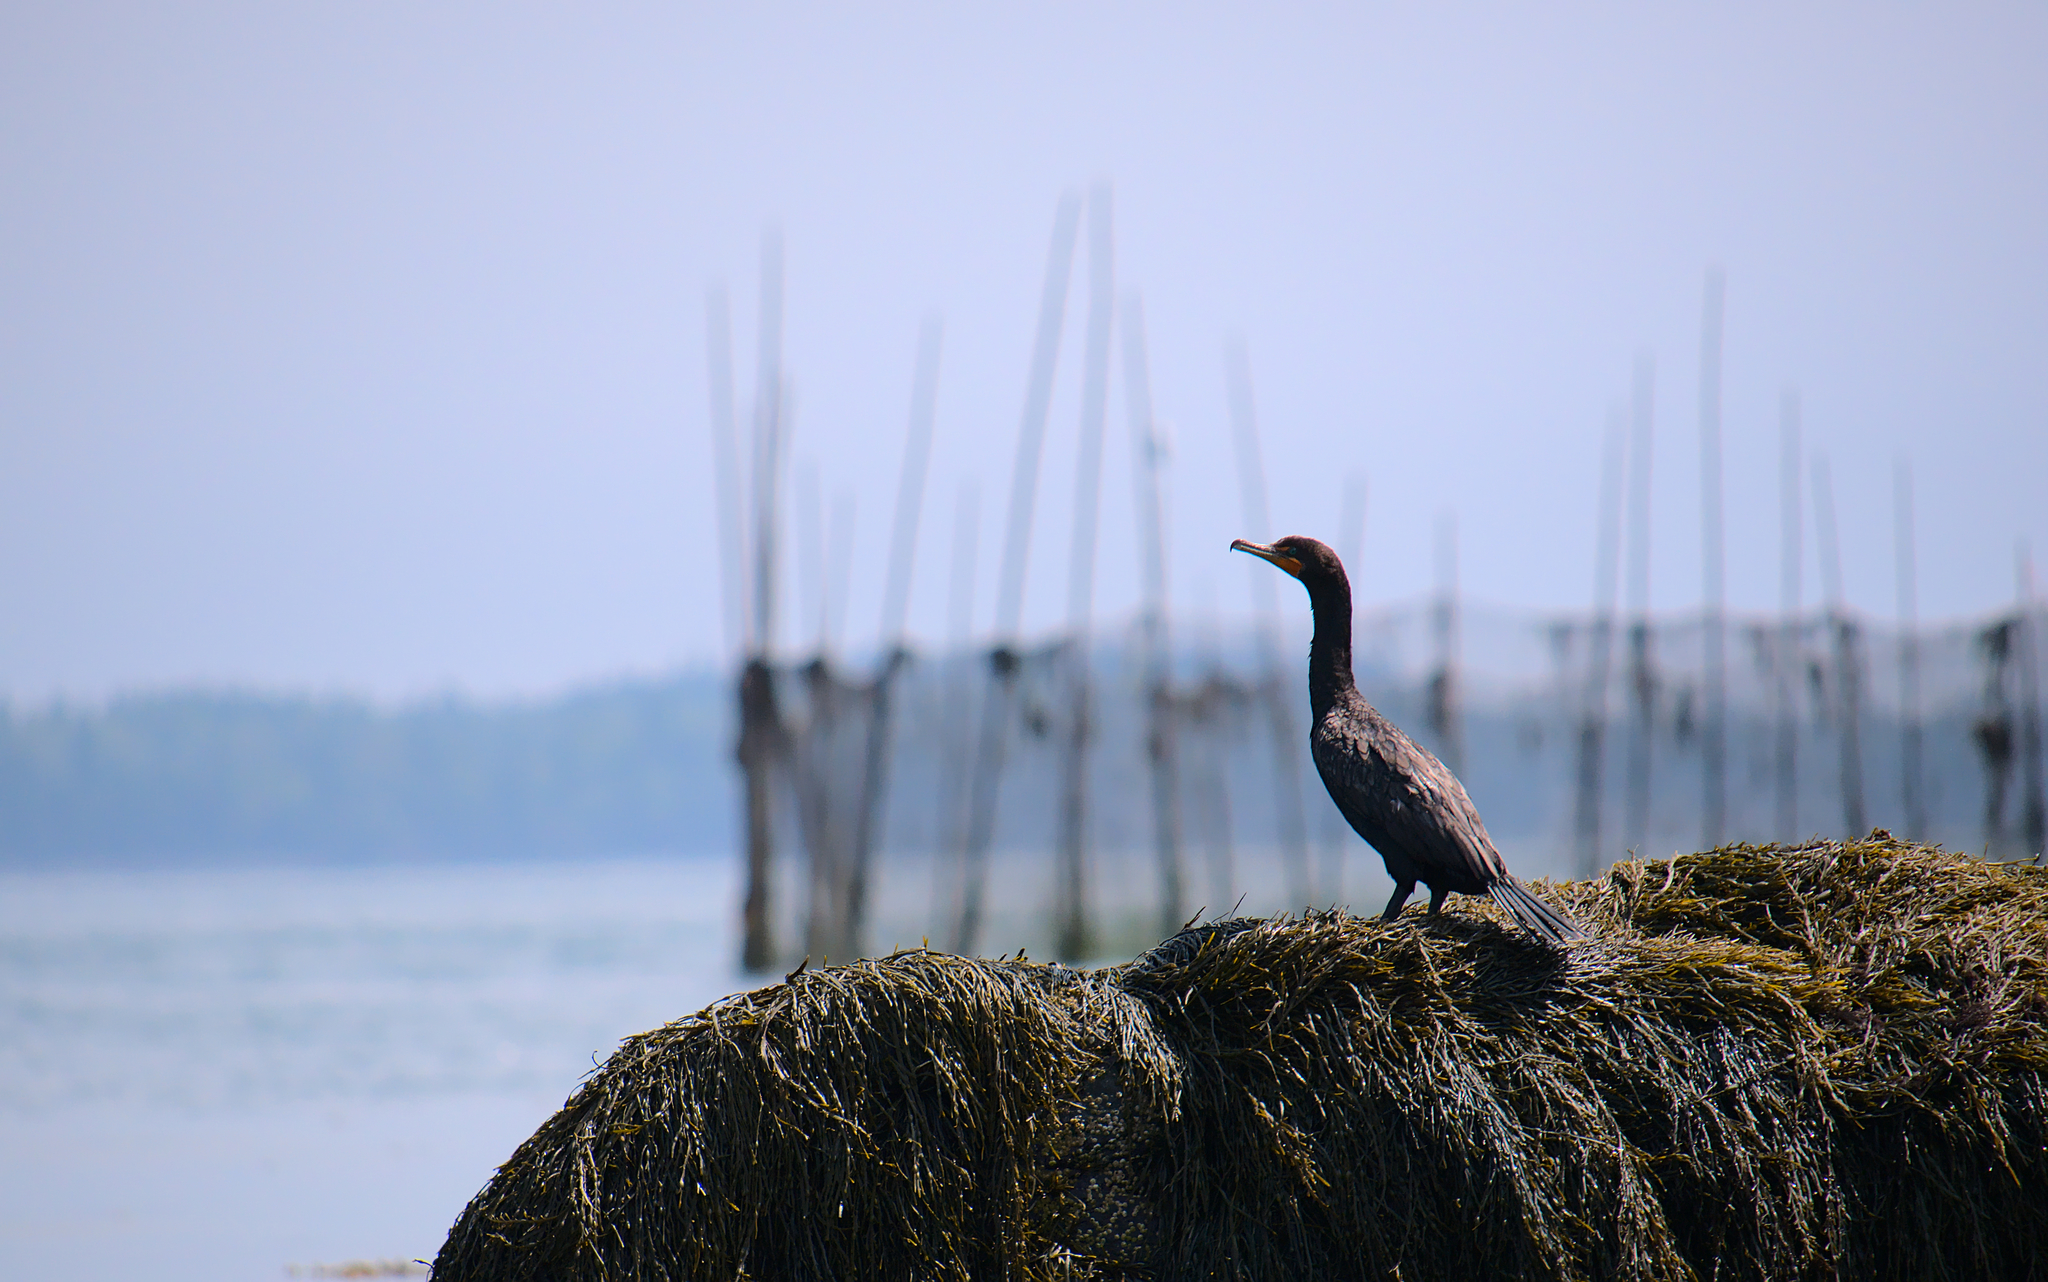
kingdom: Animalia
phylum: Chordata
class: Aves
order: Suliformes
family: Phalacrocoracidae
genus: Phalacrocorax
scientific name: Phalacrocorax auritus
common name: Double-crested cormorant
